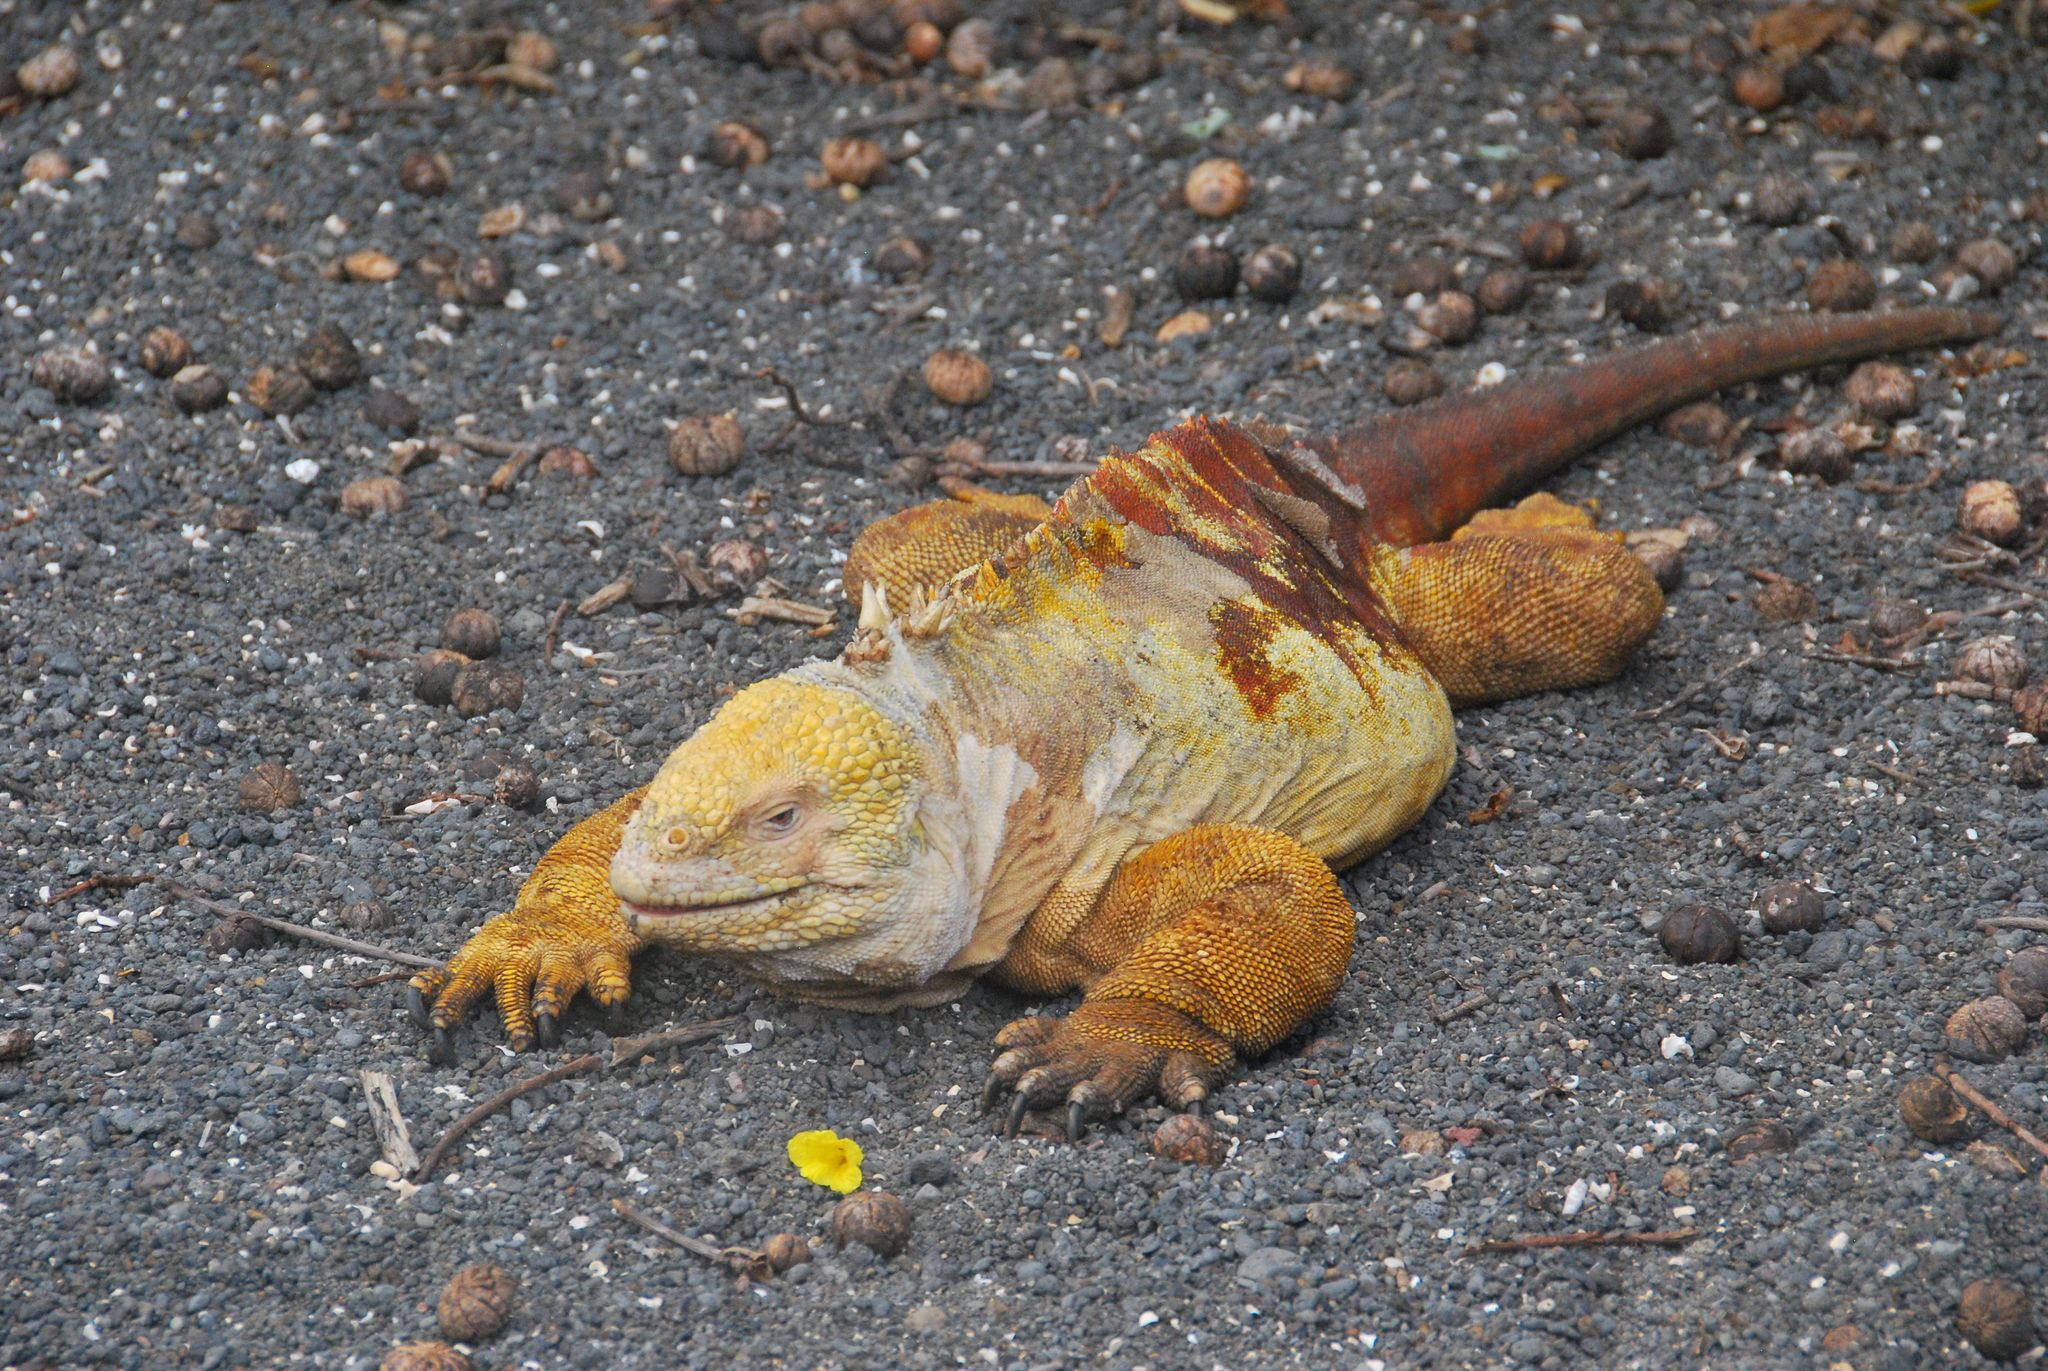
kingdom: Animalia
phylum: Chordata
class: Squamata
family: Iguanidae
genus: Conolophus
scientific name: Conolophus subcristatus
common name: Galapagos land iguana
